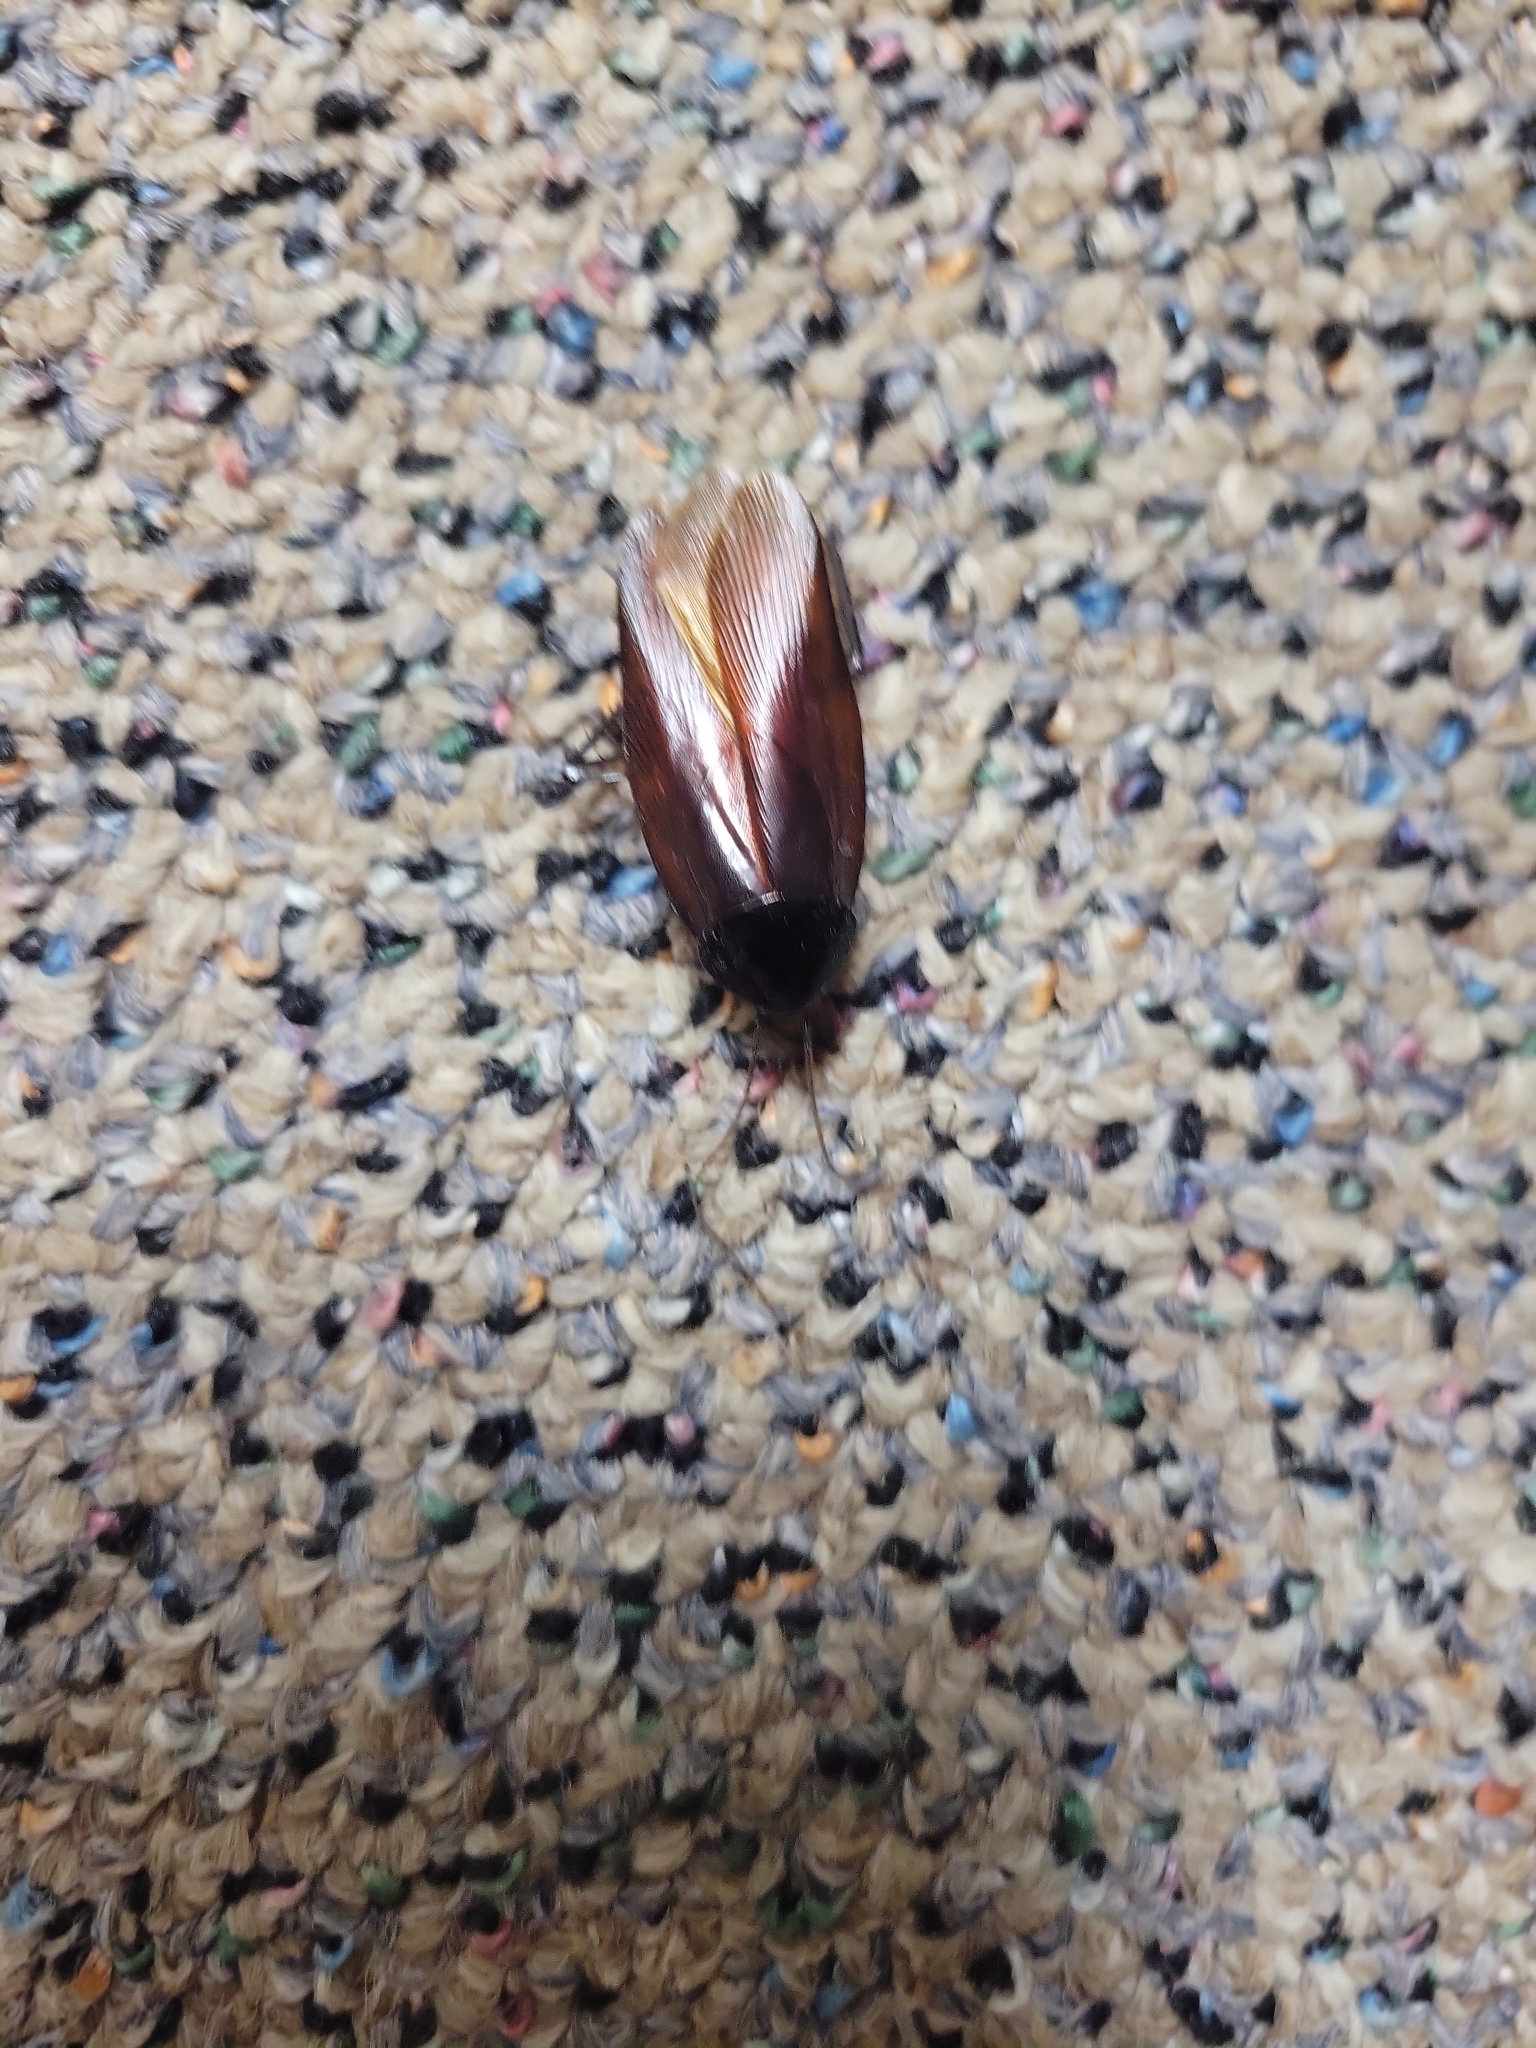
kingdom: Animalia
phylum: Arthropoda
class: Insecta
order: Blattodea
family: Blattidae
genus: Periplaneta
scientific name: Periplaneta fuliginosa
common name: Smokeybrown cockroad
